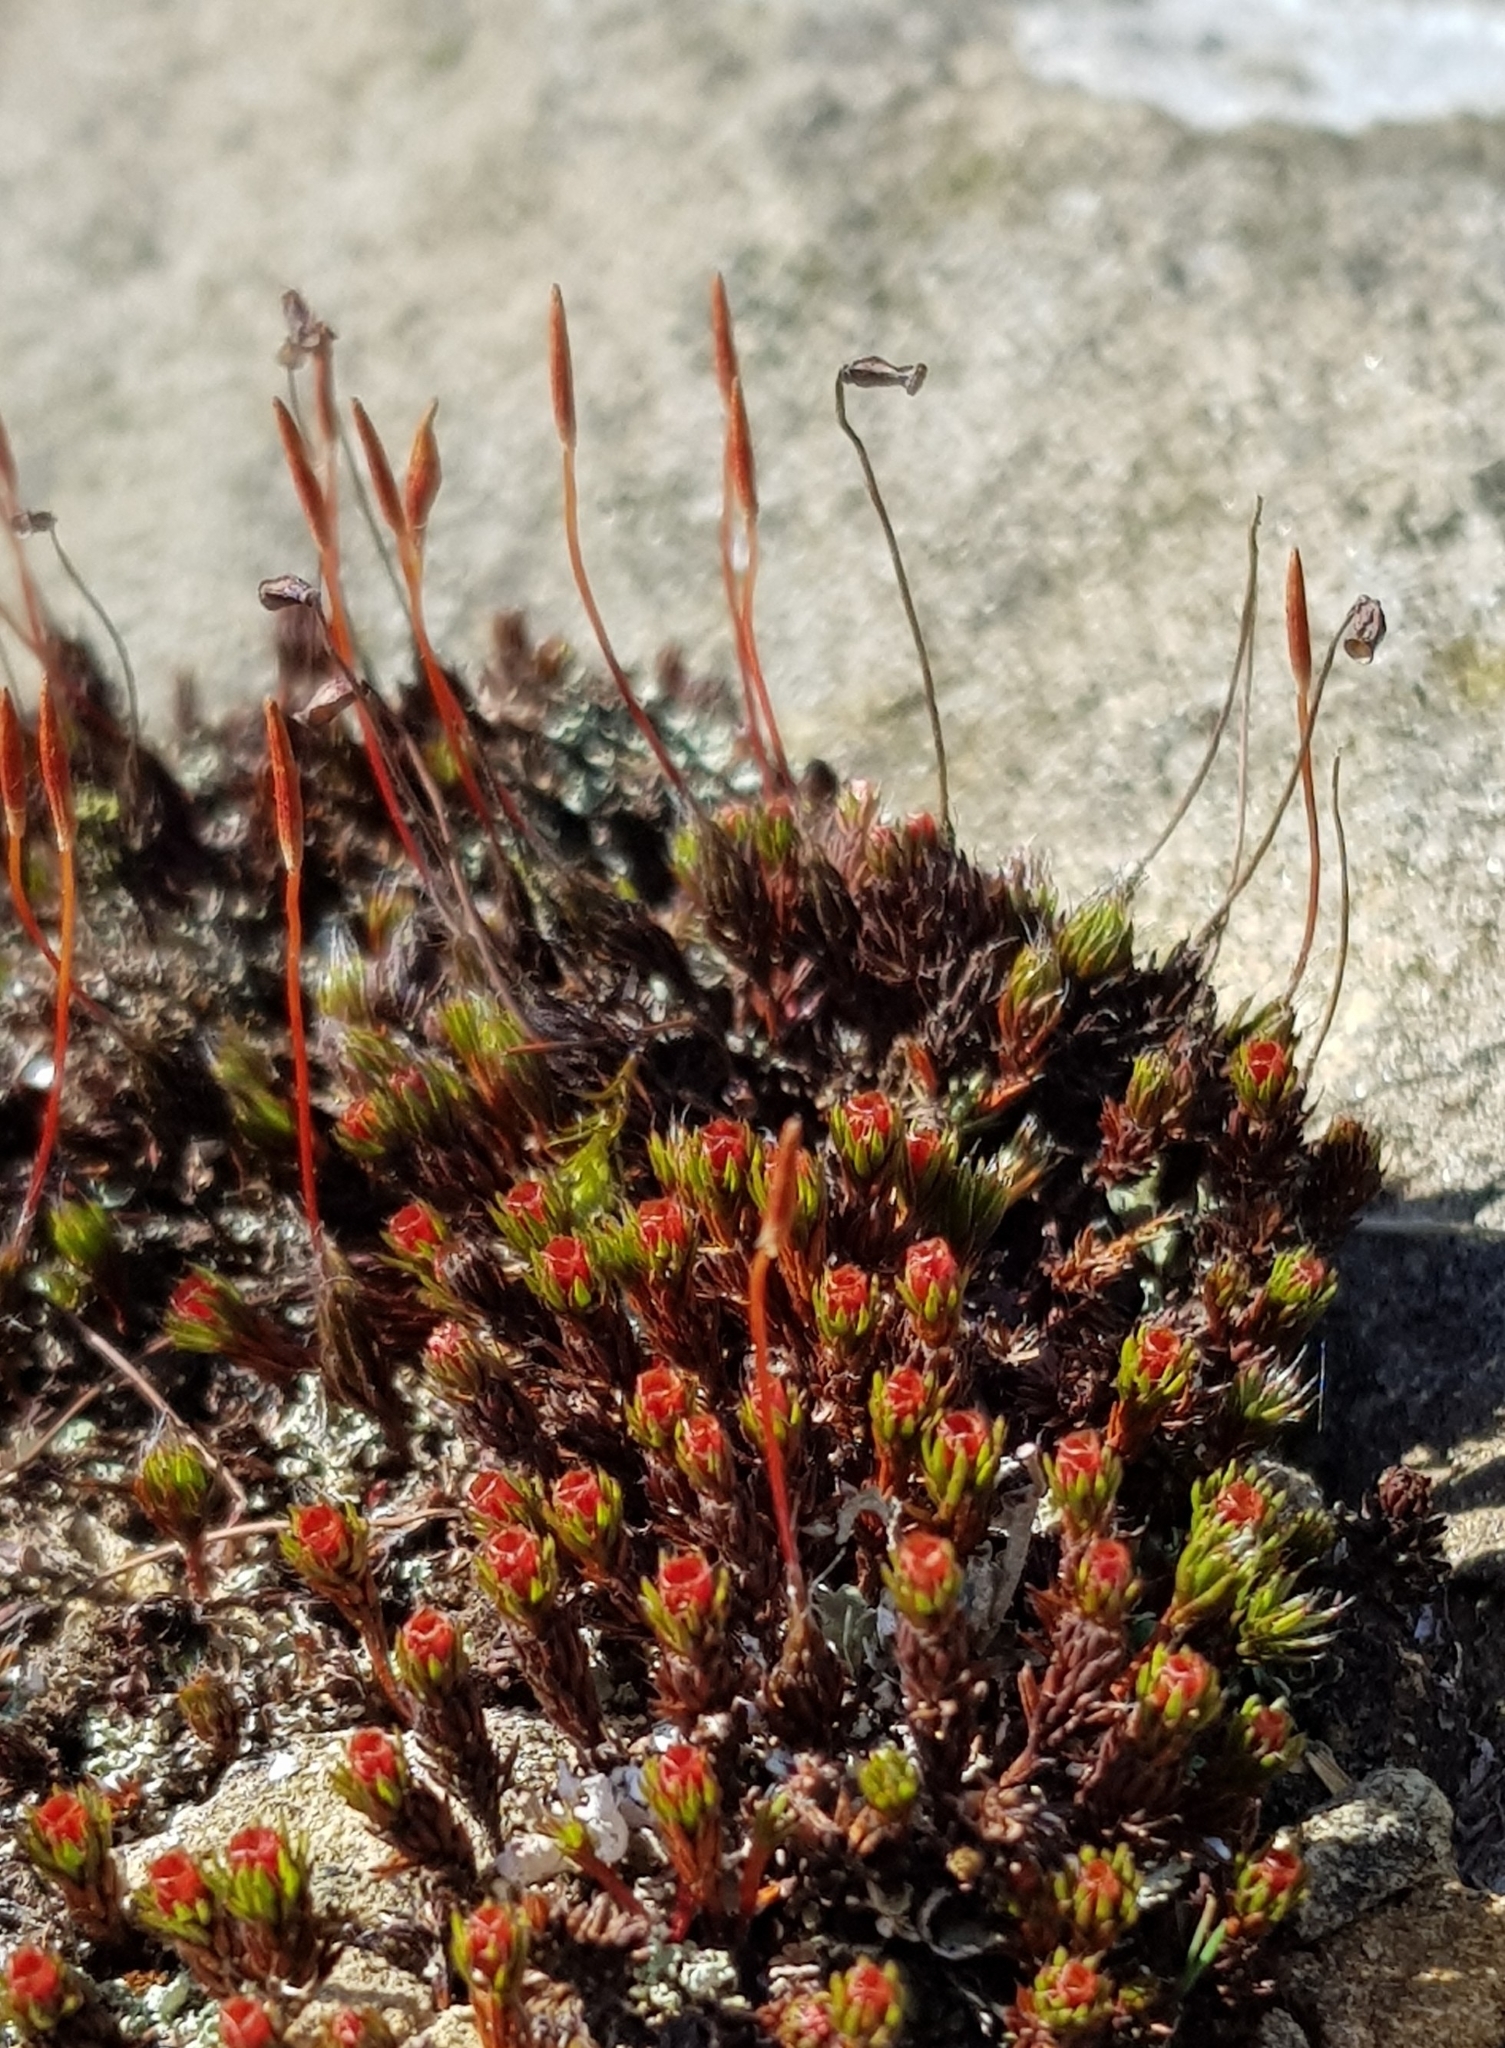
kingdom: Plantae
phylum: Bryophyta
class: Polytrichopsida
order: Polytrichales
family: Polytrichaceae
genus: Polytrichum
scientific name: Polytrichum piliferum
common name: Bristly haircap
